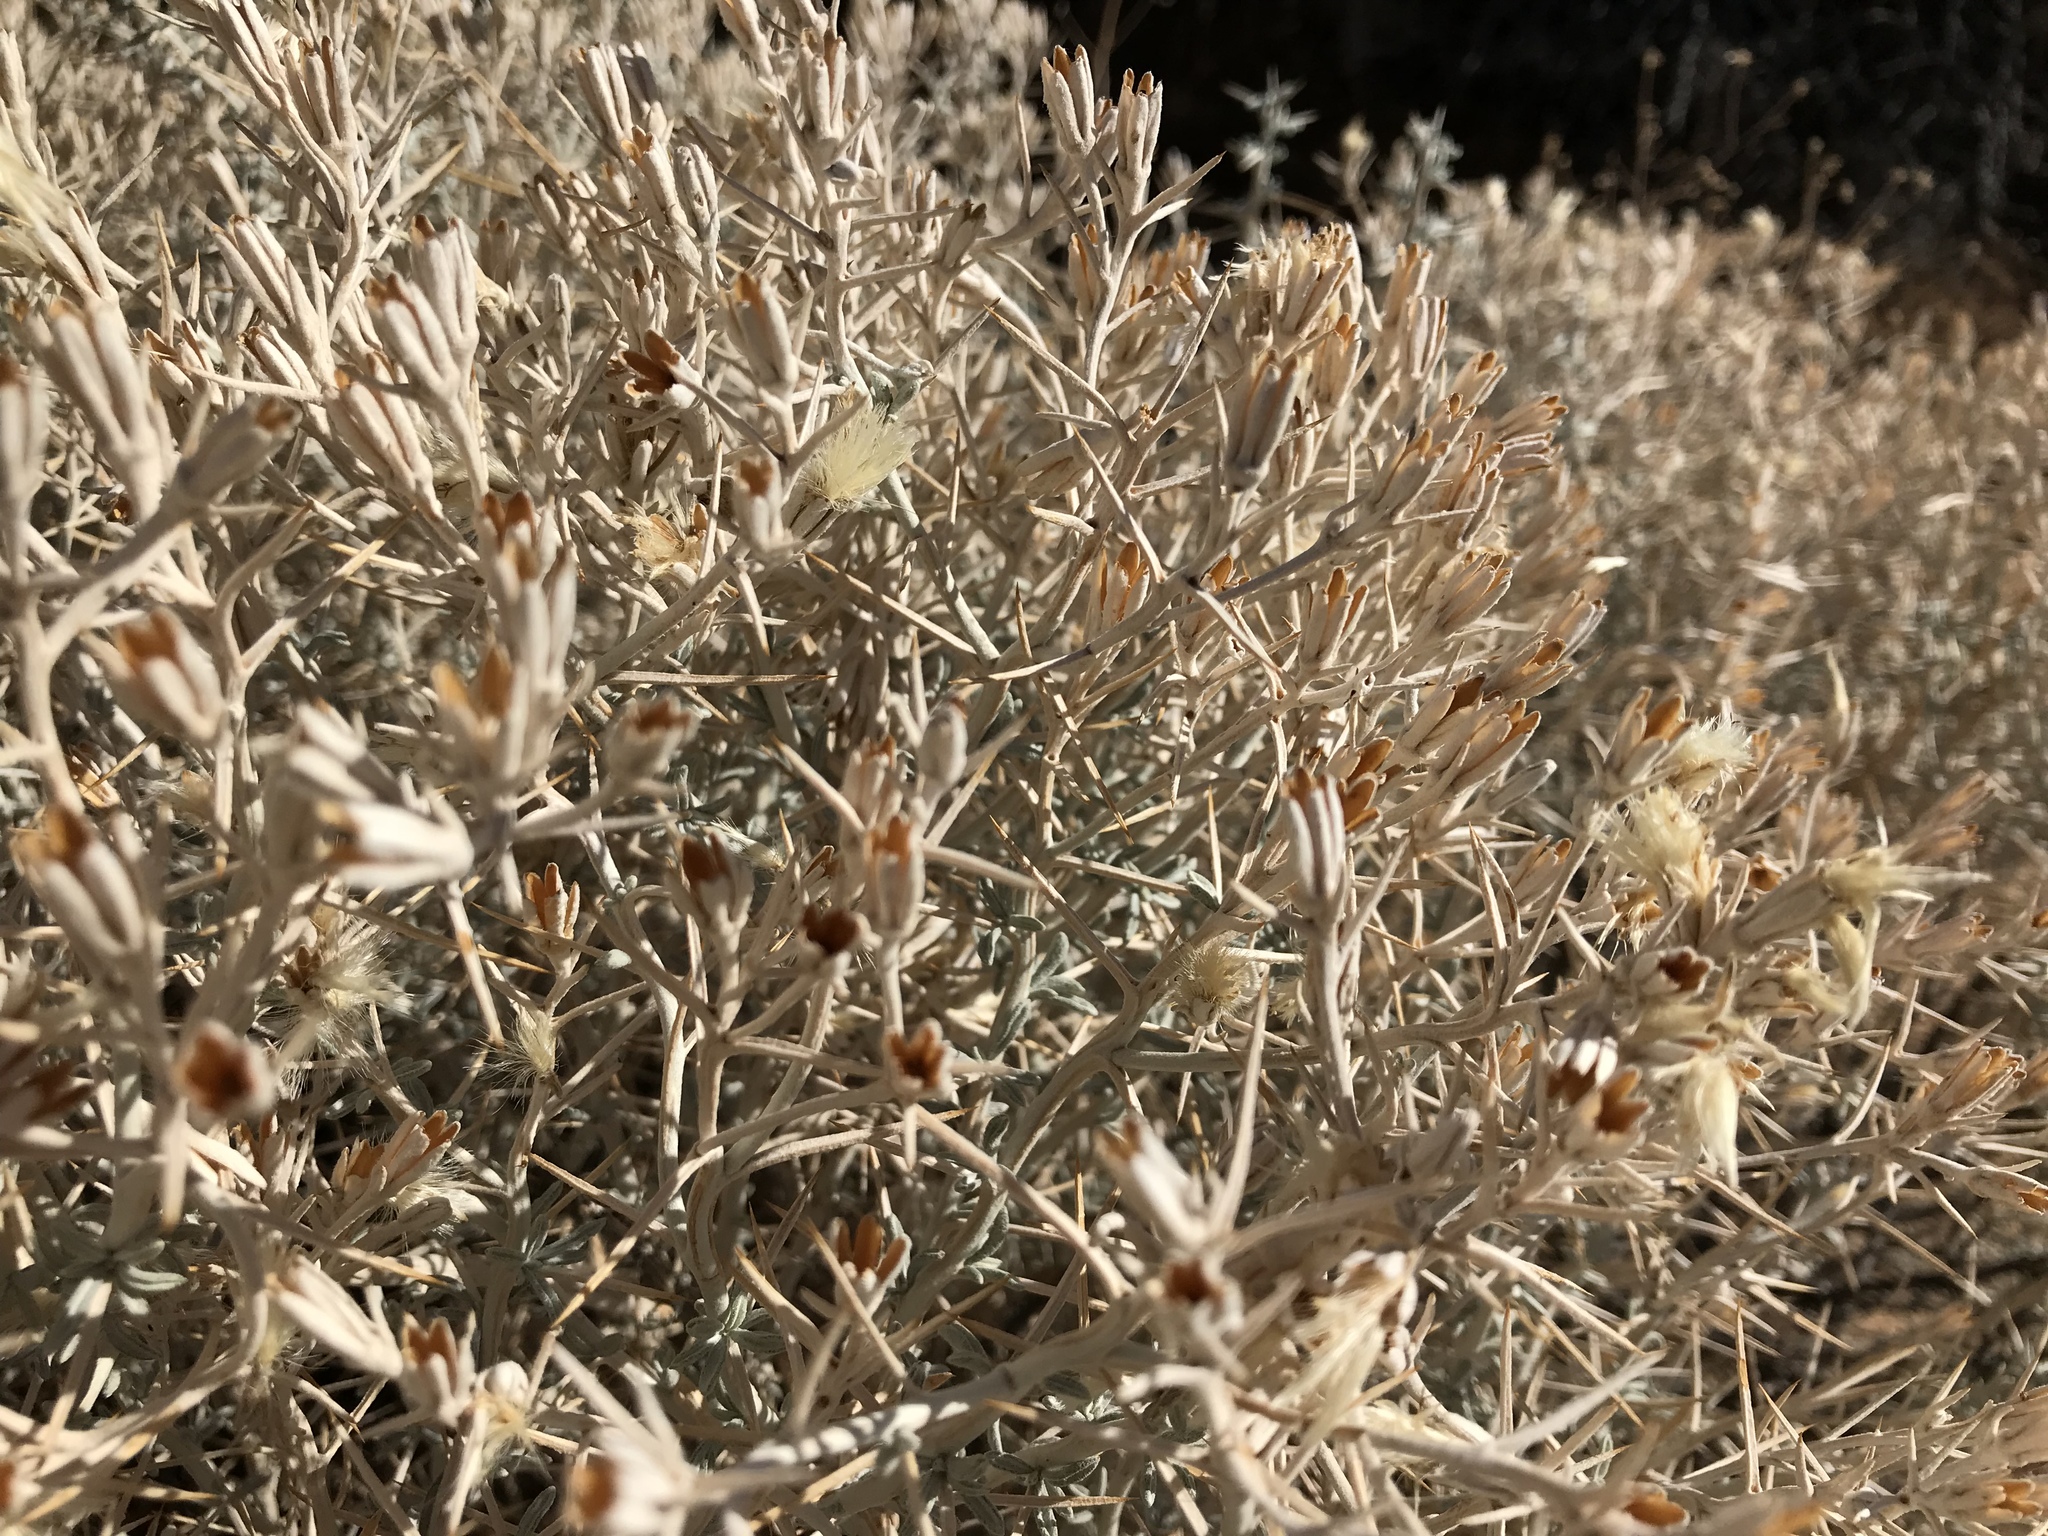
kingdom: Plantae
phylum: Tracheophyta
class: Magnoliopsida
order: Asterales
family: Asteraceae
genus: Tetradymia
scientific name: Tetradymia stenolepis
